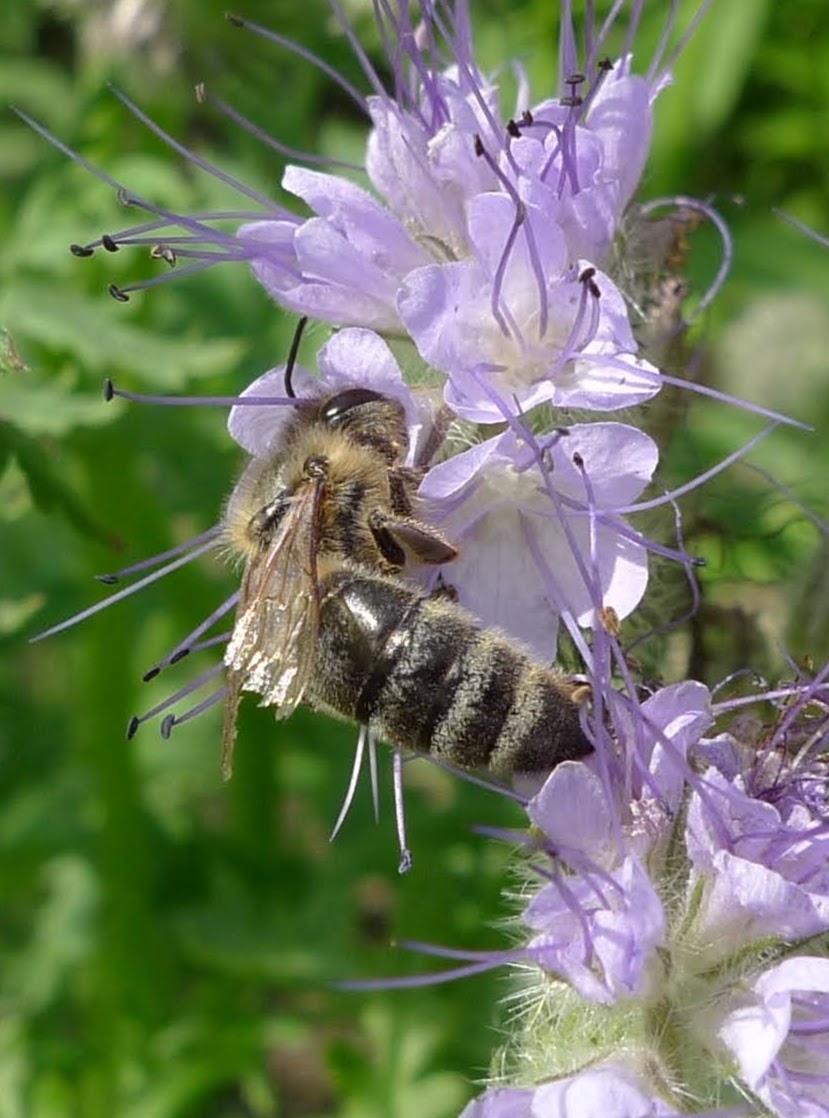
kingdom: Animalia
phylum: Arthropoda
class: Insecta
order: Hymenoptera
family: Apidae
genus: Apis
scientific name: Apis mellifera
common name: Honey bee
